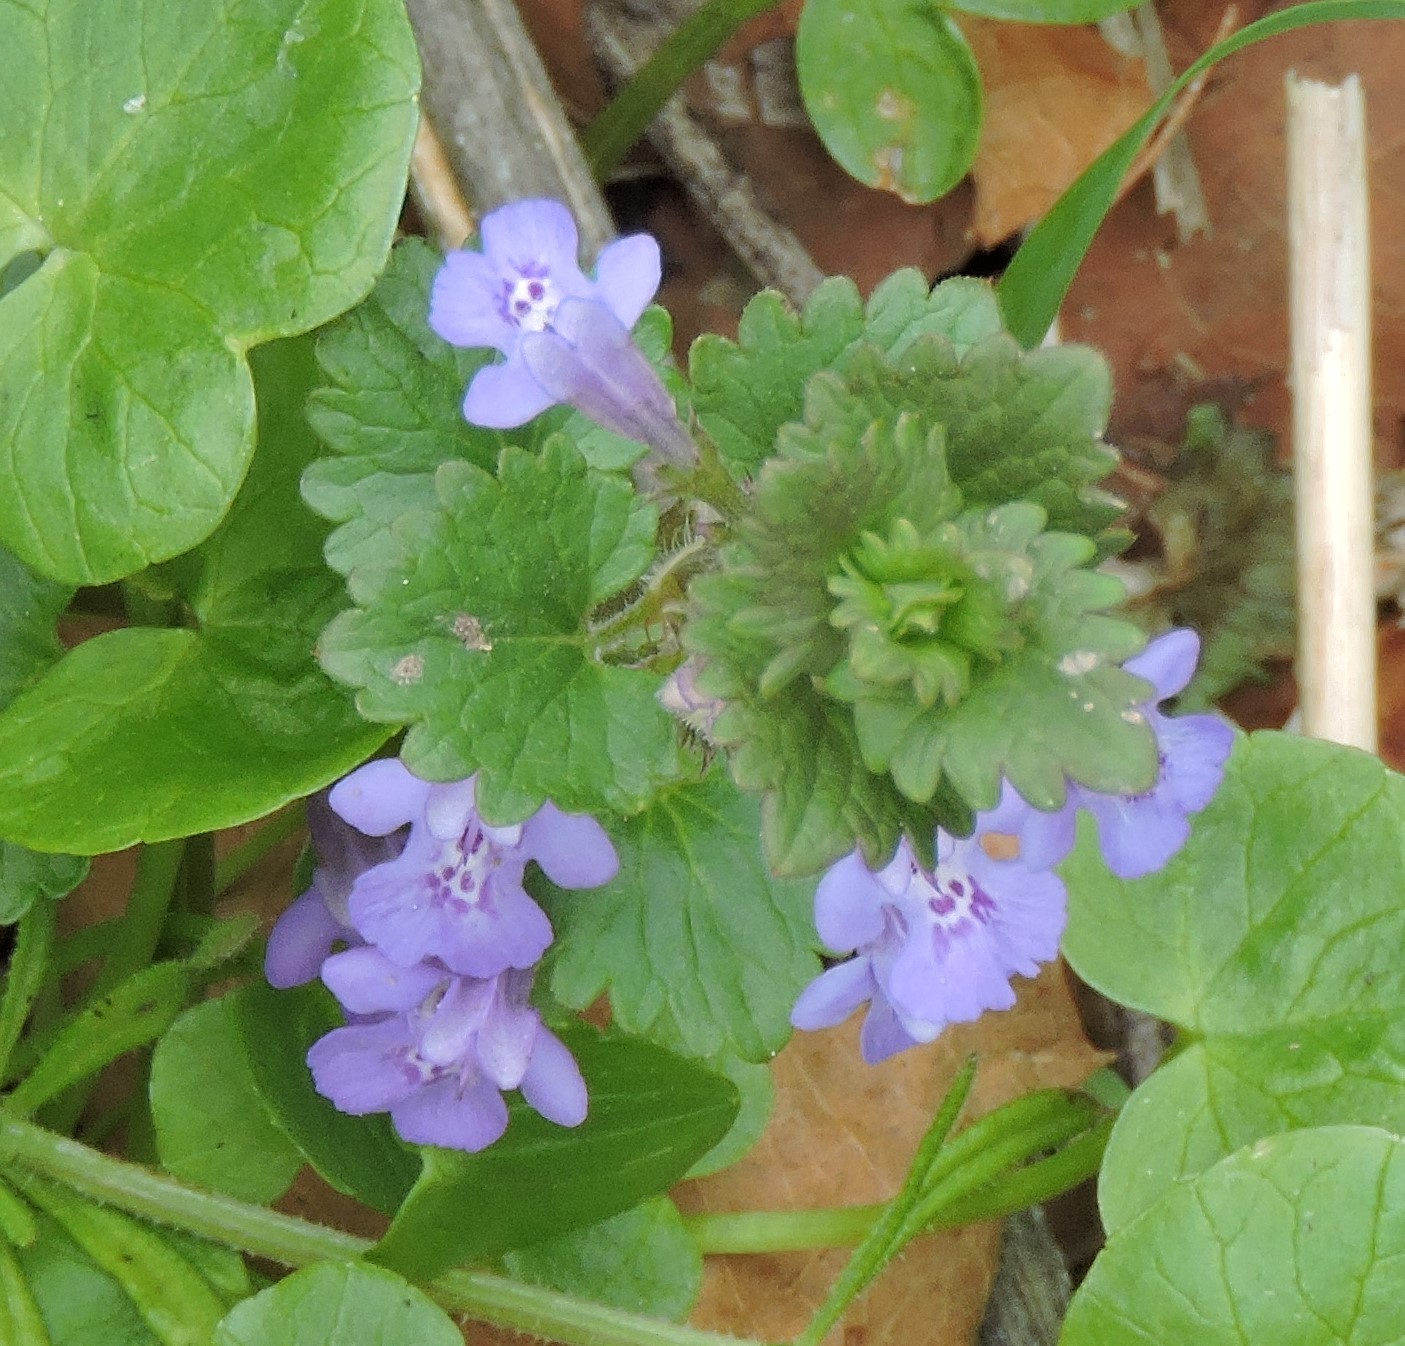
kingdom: Plantae
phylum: Tracheophyta
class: Magnoliopsida
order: Lamiales
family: Lamiaceae
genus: Glechoma
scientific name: Glechoma hederacea
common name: Ground ivy
